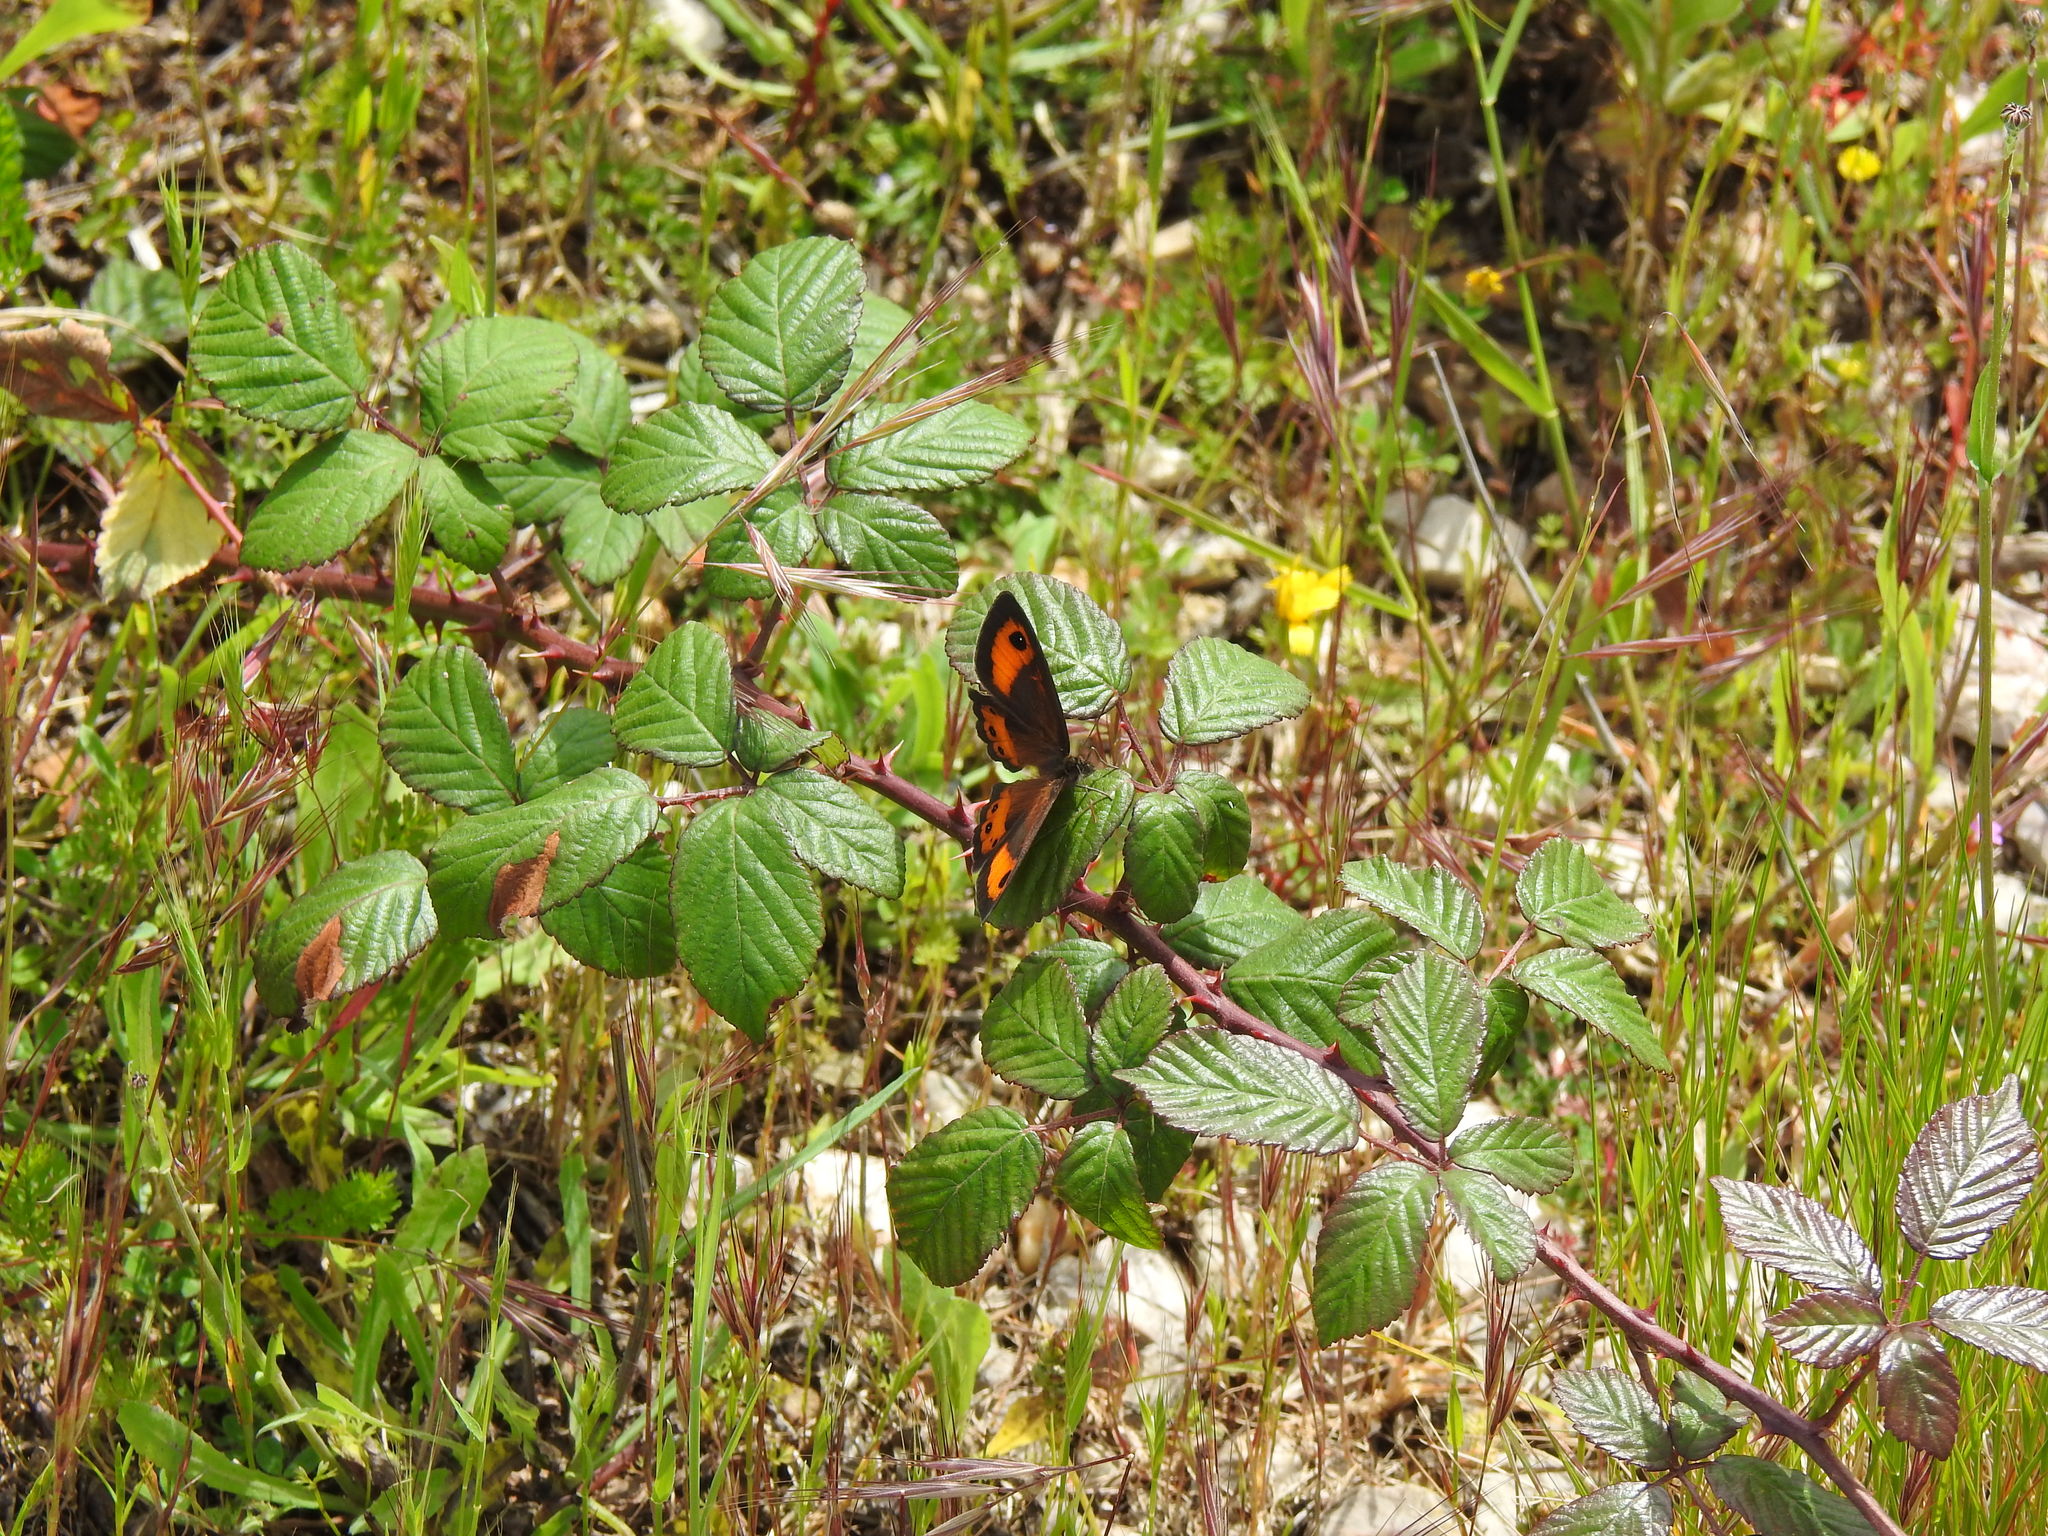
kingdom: Animalia
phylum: Arthropoda
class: Insecta
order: Lepidoptera
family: Nymphalidae
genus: Pyronia
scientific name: Pyronia bathseba
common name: Spanish gatekeeper
